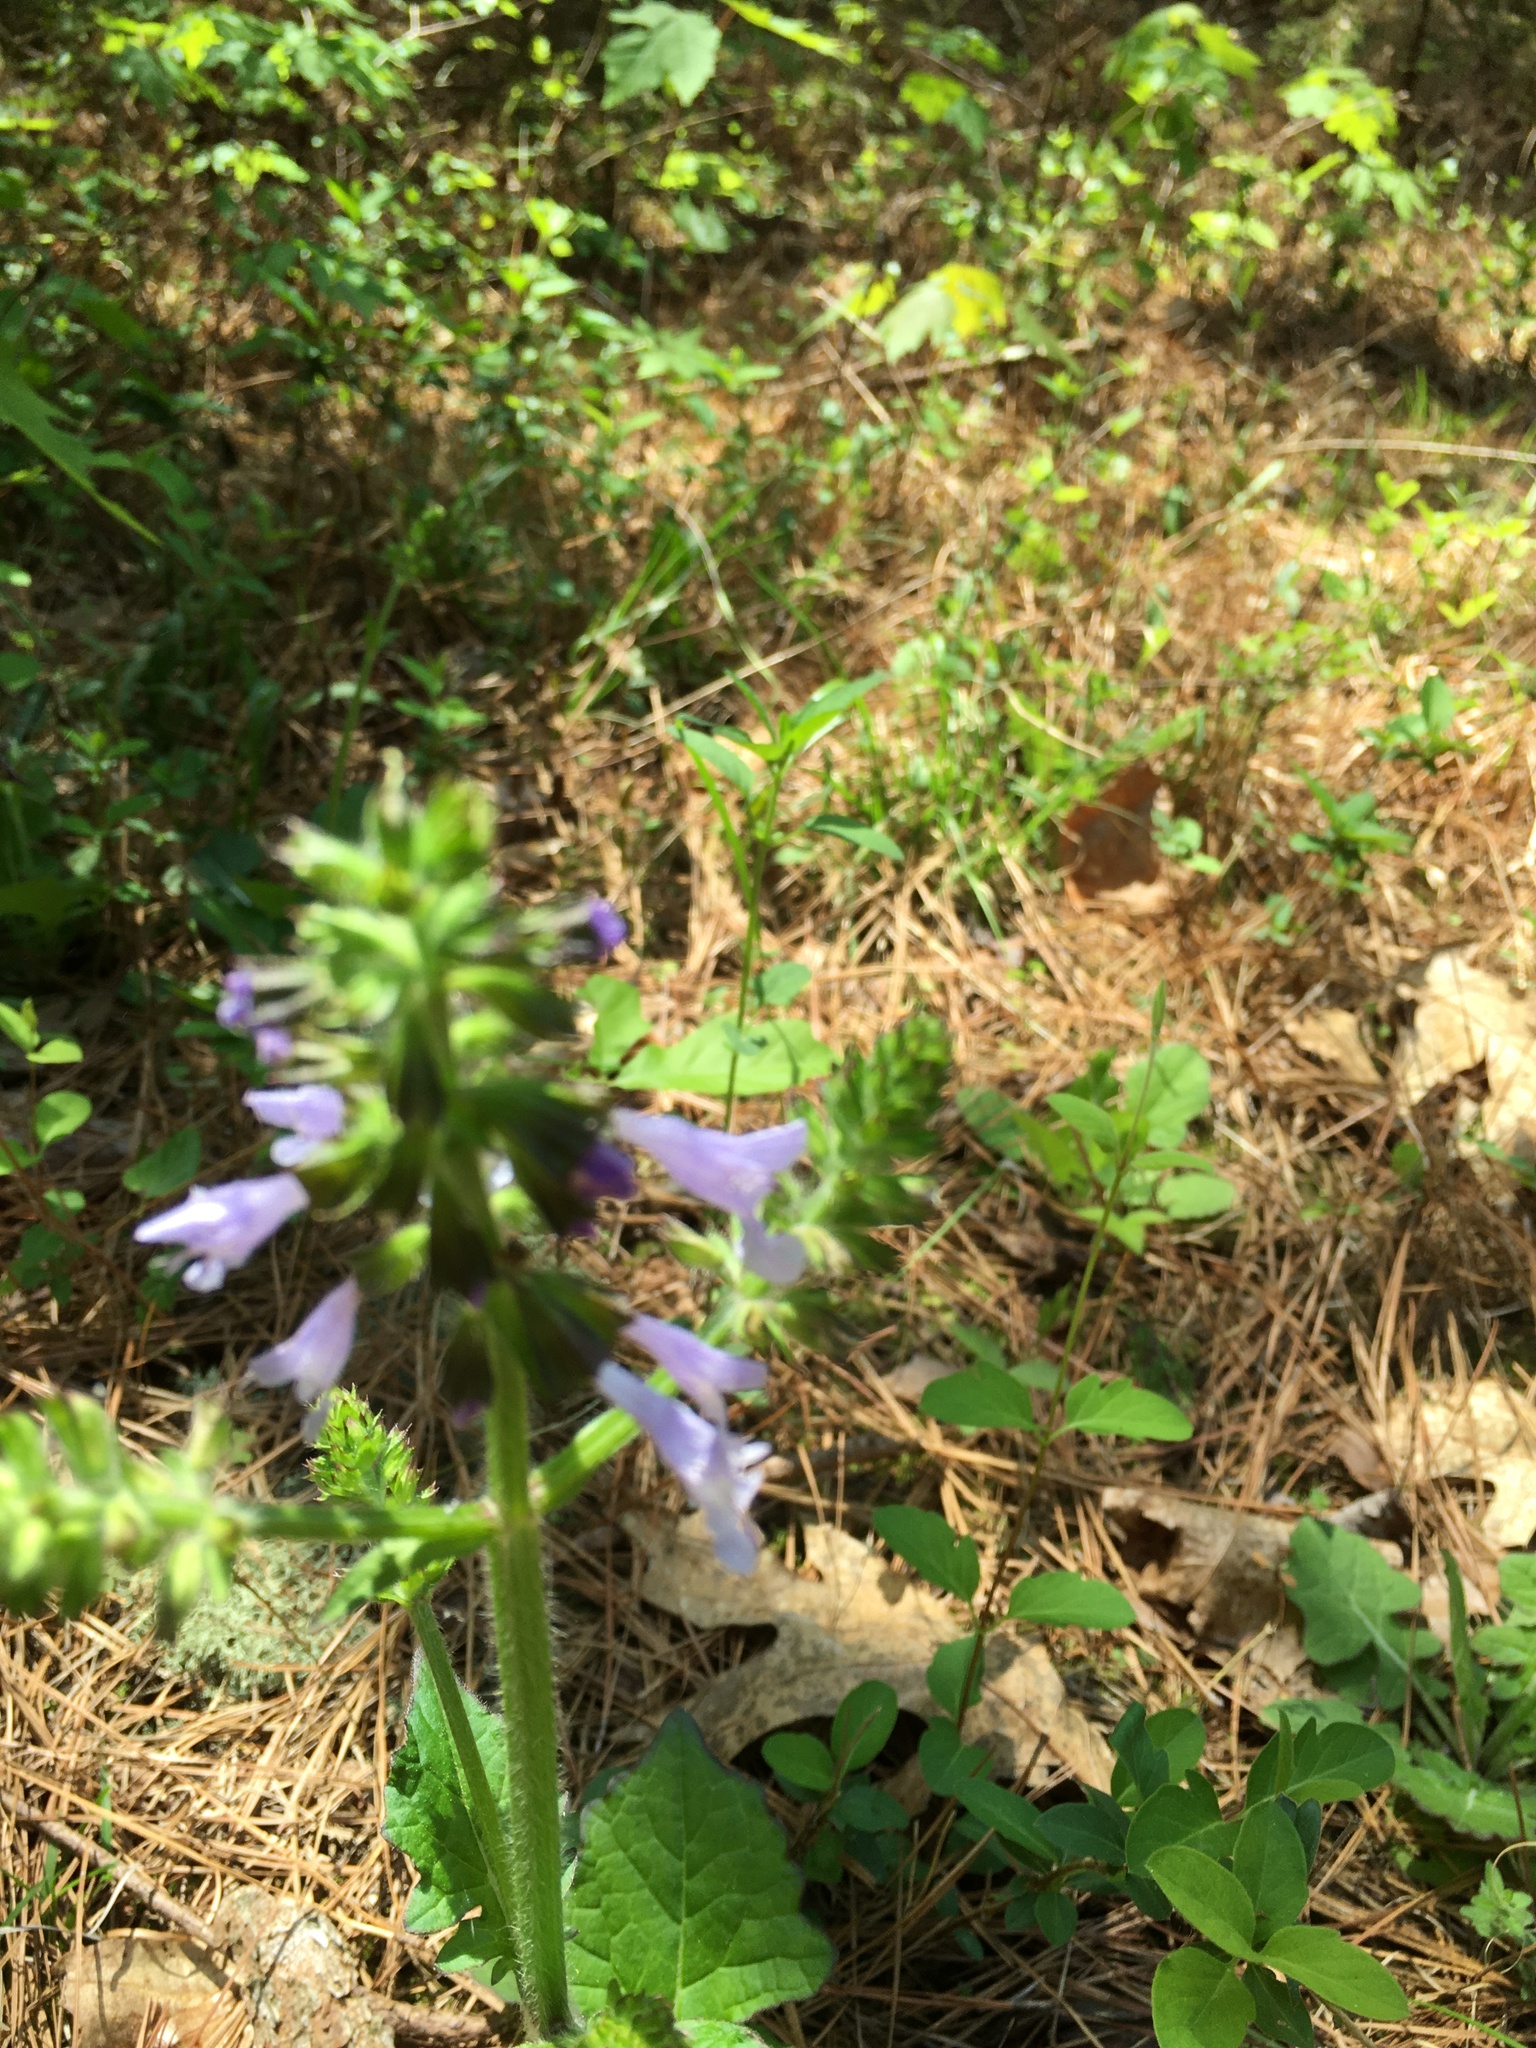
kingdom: Plantae
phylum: Tracheophyta
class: Magnoliopsida
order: Lamiales
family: Lamiaceae
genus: Salvia
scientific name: Salvia lyrata
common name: Cancerweed
